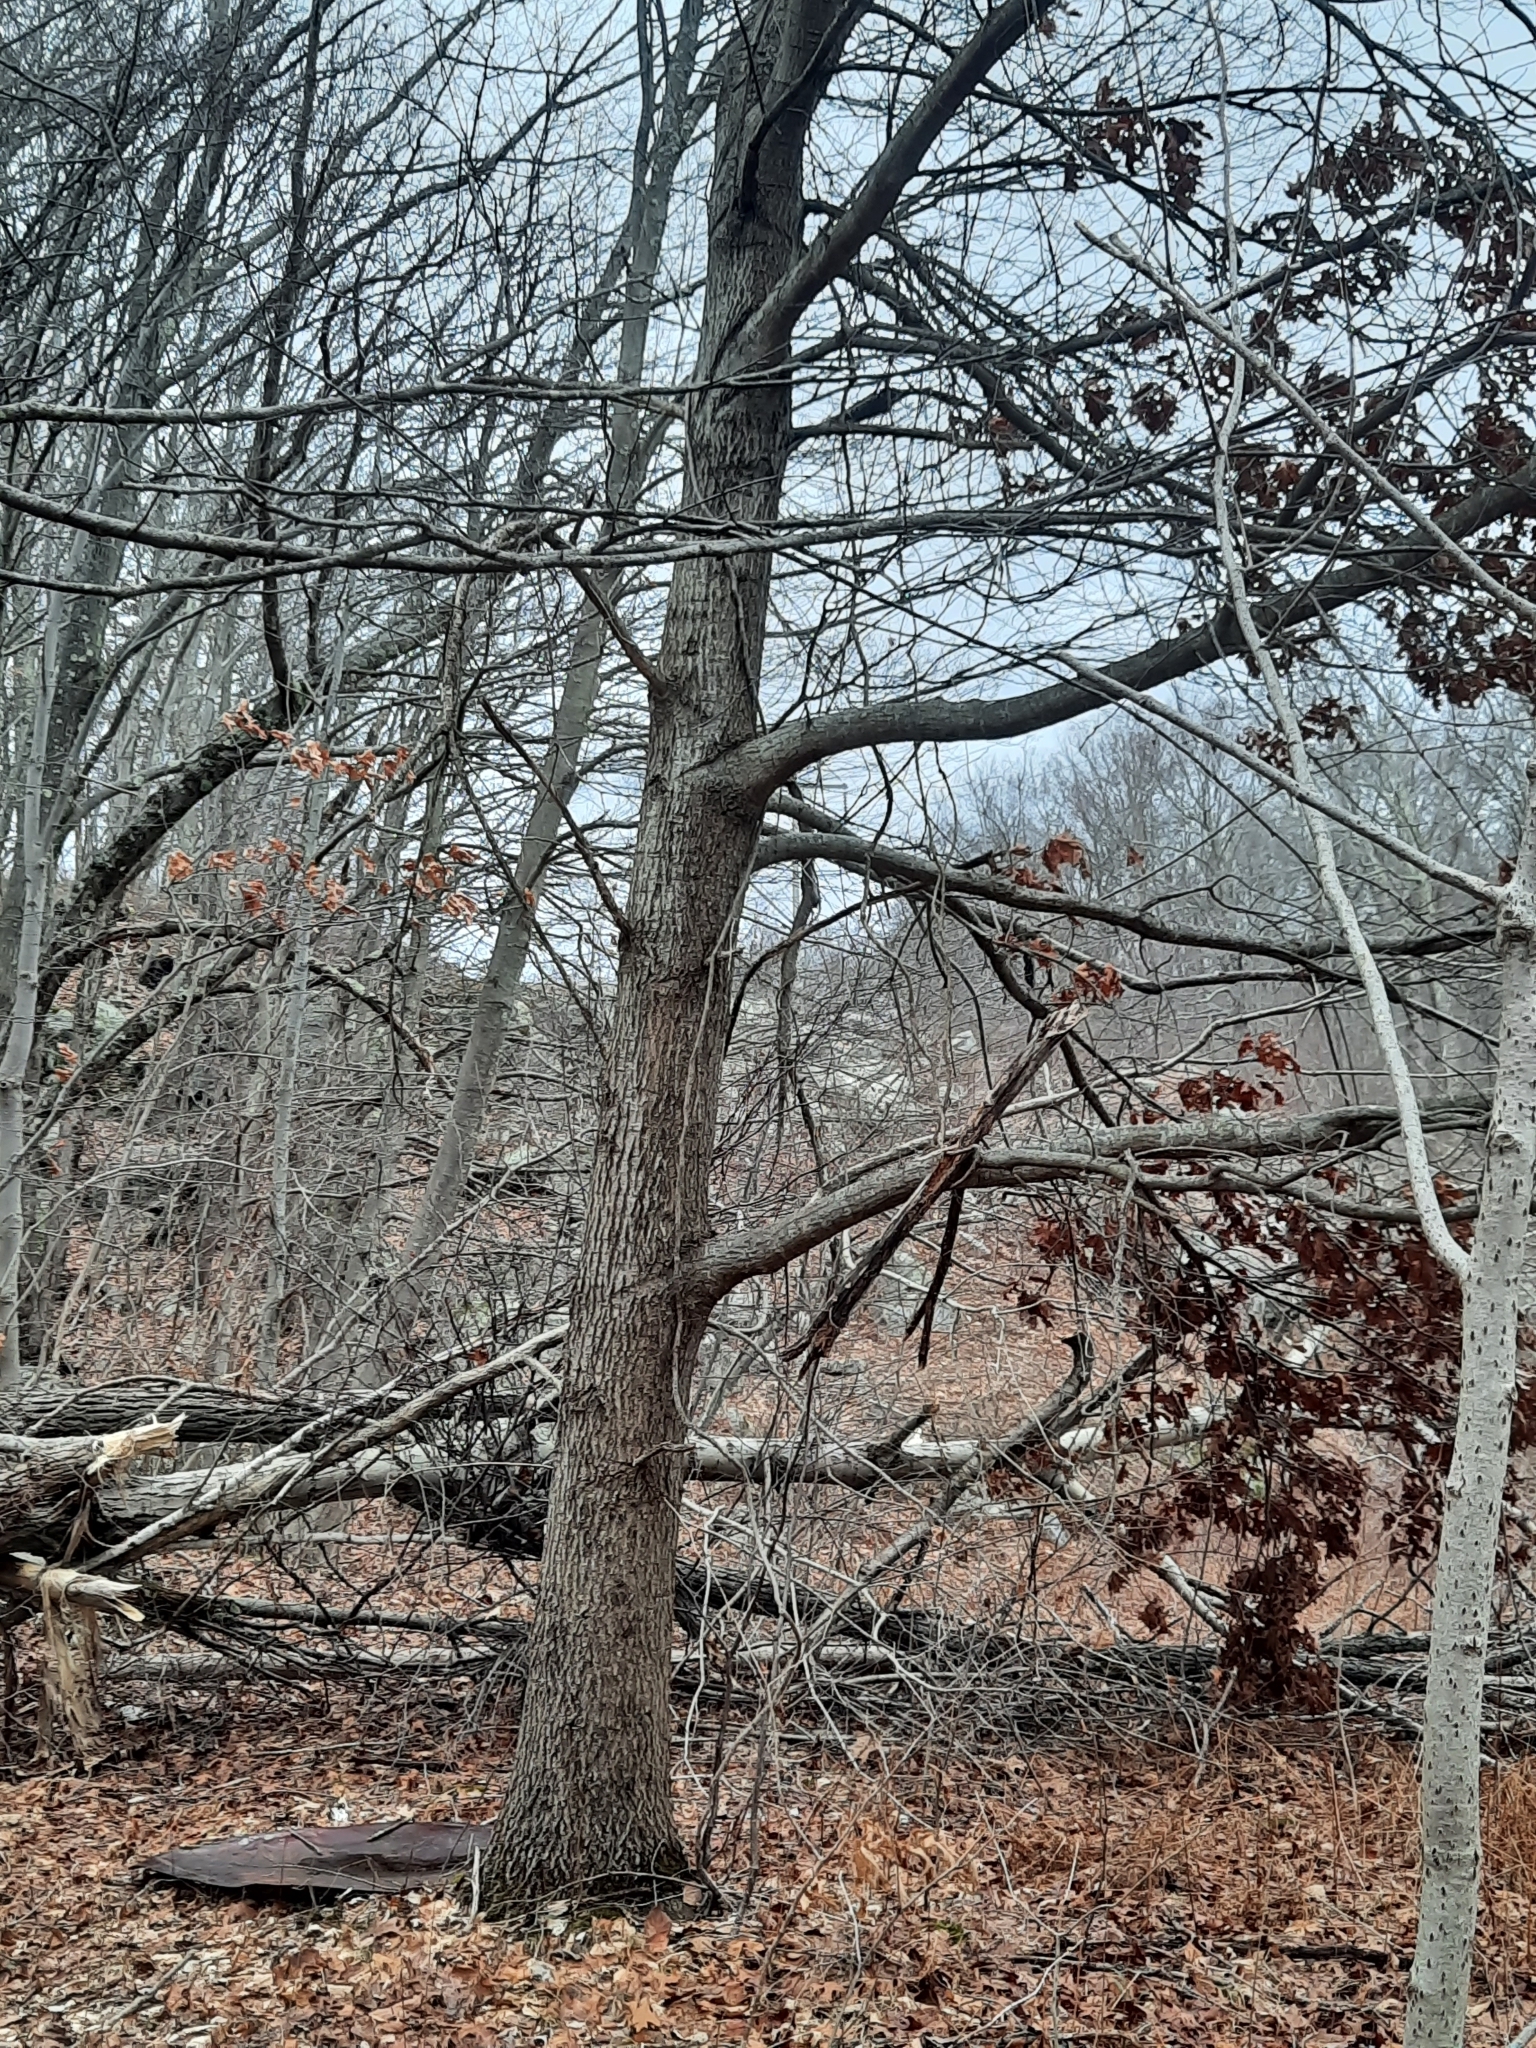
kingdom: Plantae
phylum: Tracheophyta
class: Magnoliopsida
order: Fagales
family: Fagaceae
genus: Quercus
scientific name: Quercus velutina
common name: Black oak
